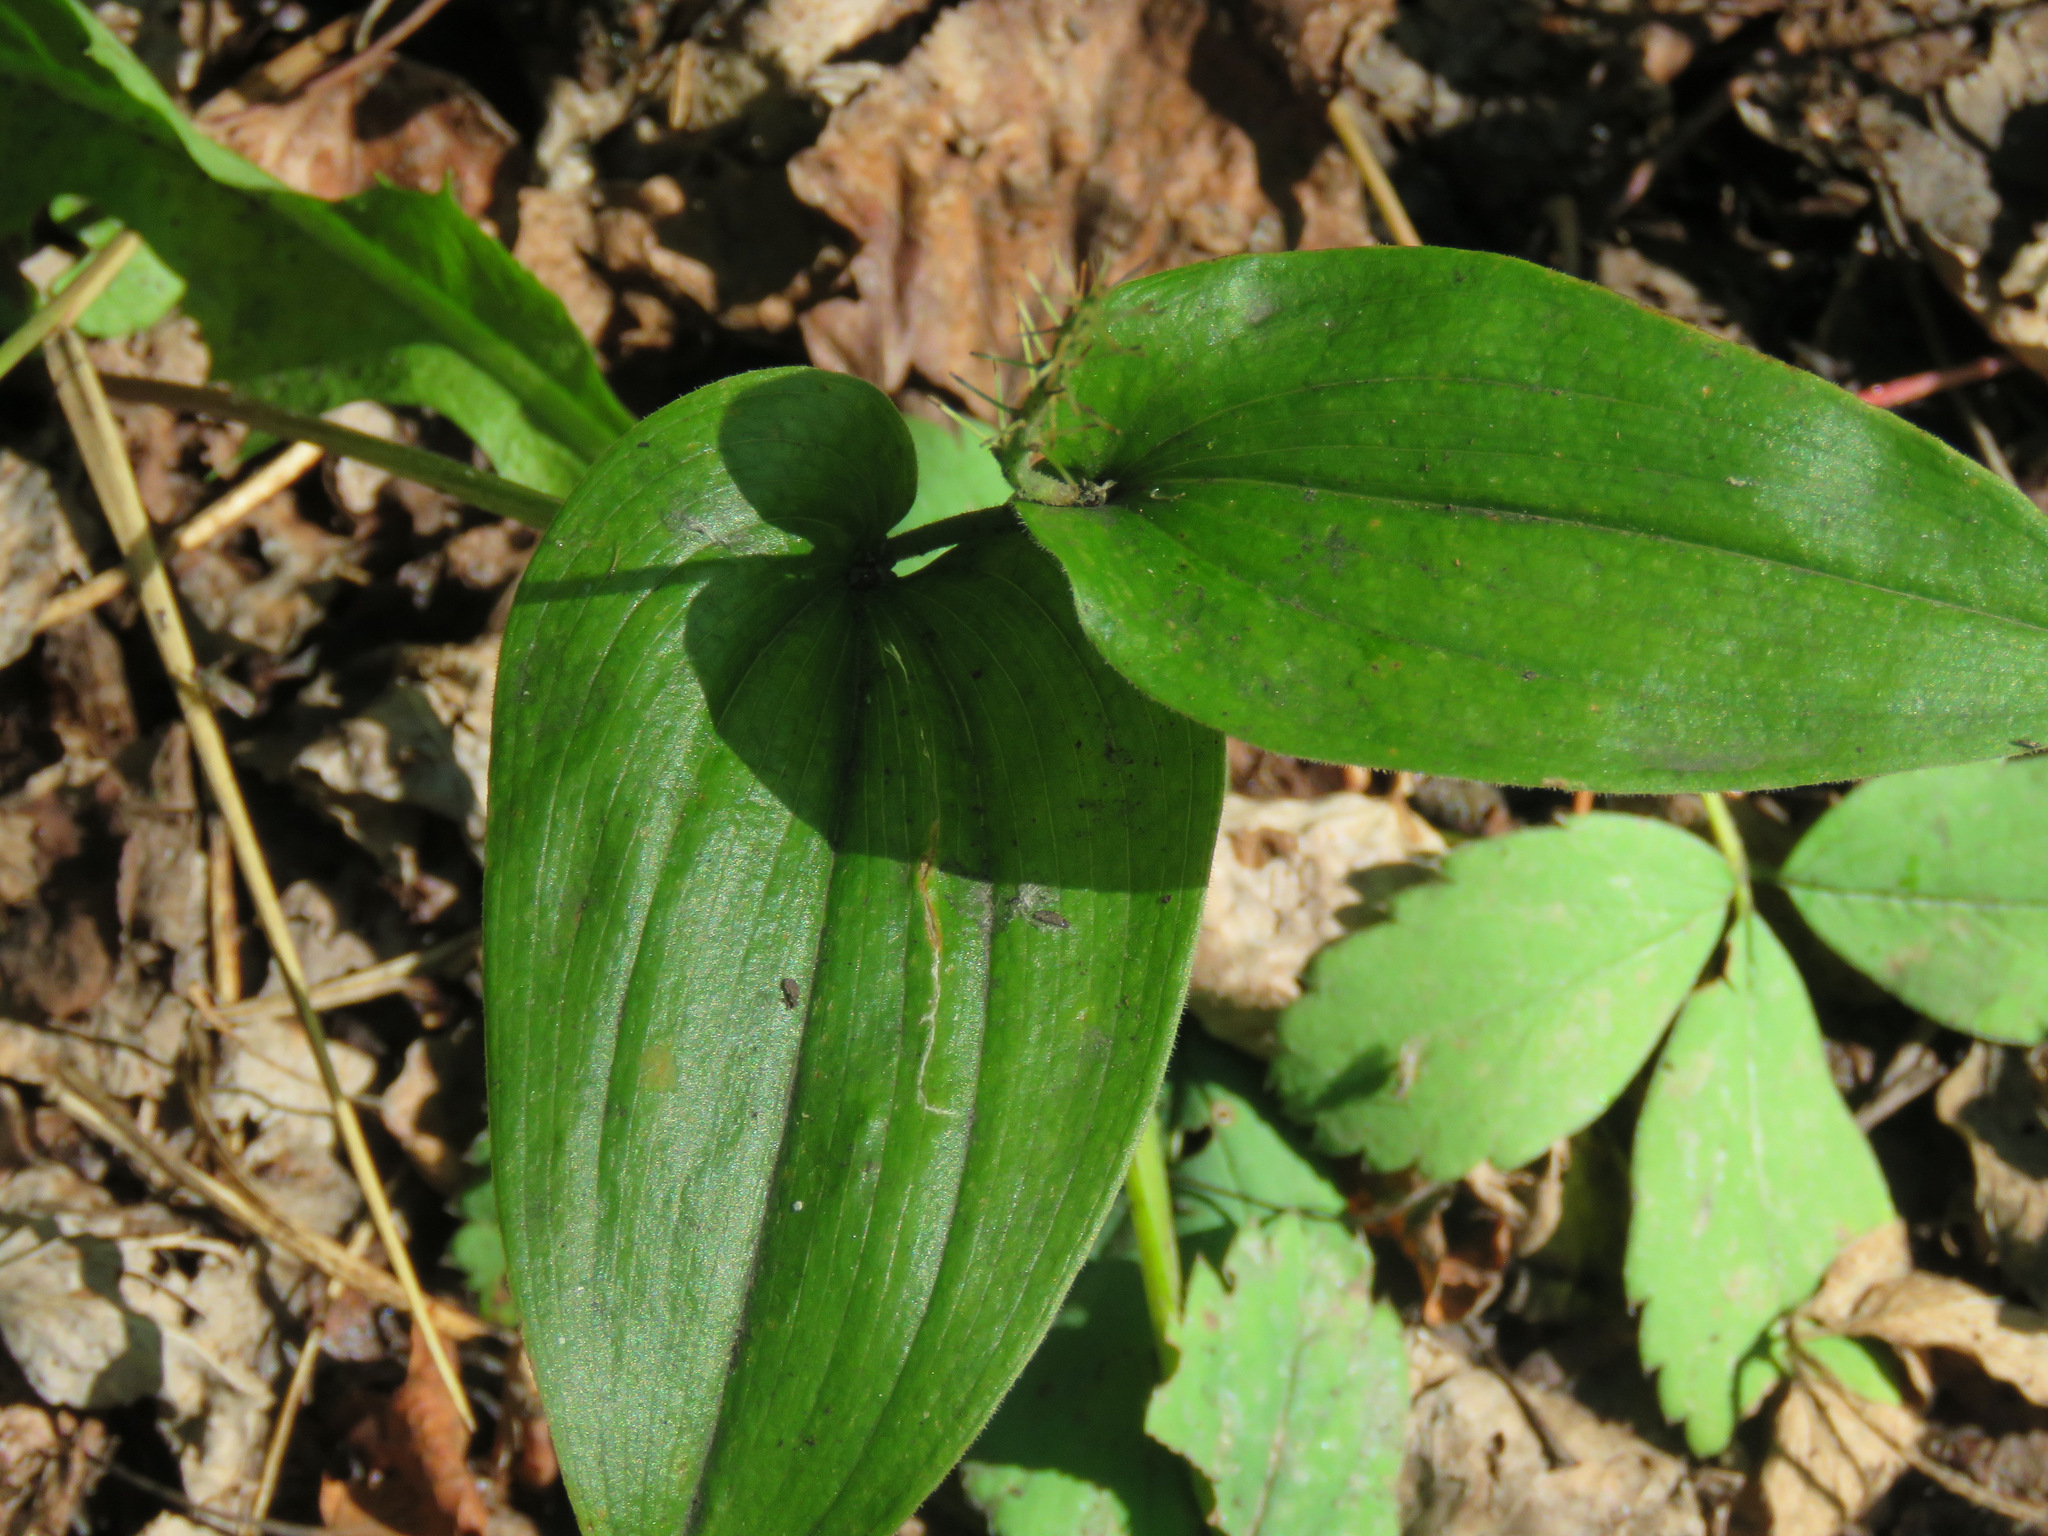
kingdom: Plantae
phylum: Tracheophyta
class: Liliopsida
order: Asparagales
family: Asparagaceae
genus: Maianthemum
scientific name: Maianthemum canadense
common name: False lily-of-the-valley
